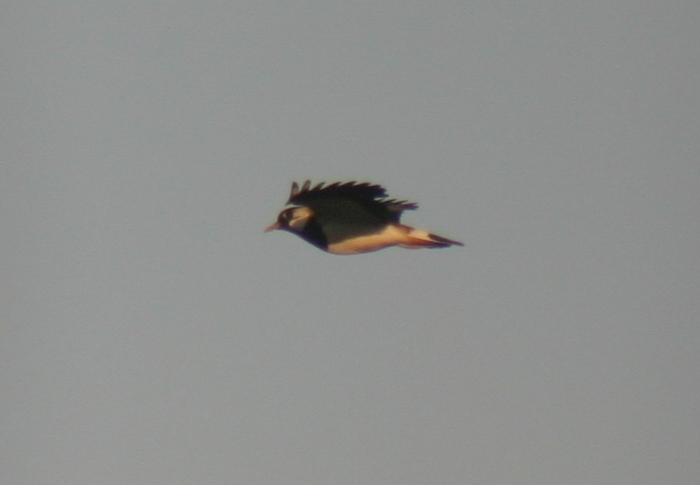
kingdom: Animalia
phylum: Chordata
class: Aves
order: Charadriiformes
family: Charadriidae
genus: Vanellus
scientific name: Vanellus vanellus
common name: Northern lapwing
